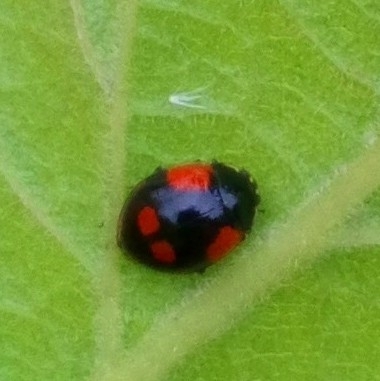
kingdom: Animalia
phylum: Arthropoda
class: Insecta
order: Coleoptera
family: Coccinellidae
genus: Adalia
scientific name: Adalia bipunctata
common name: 2-spot ladybird
